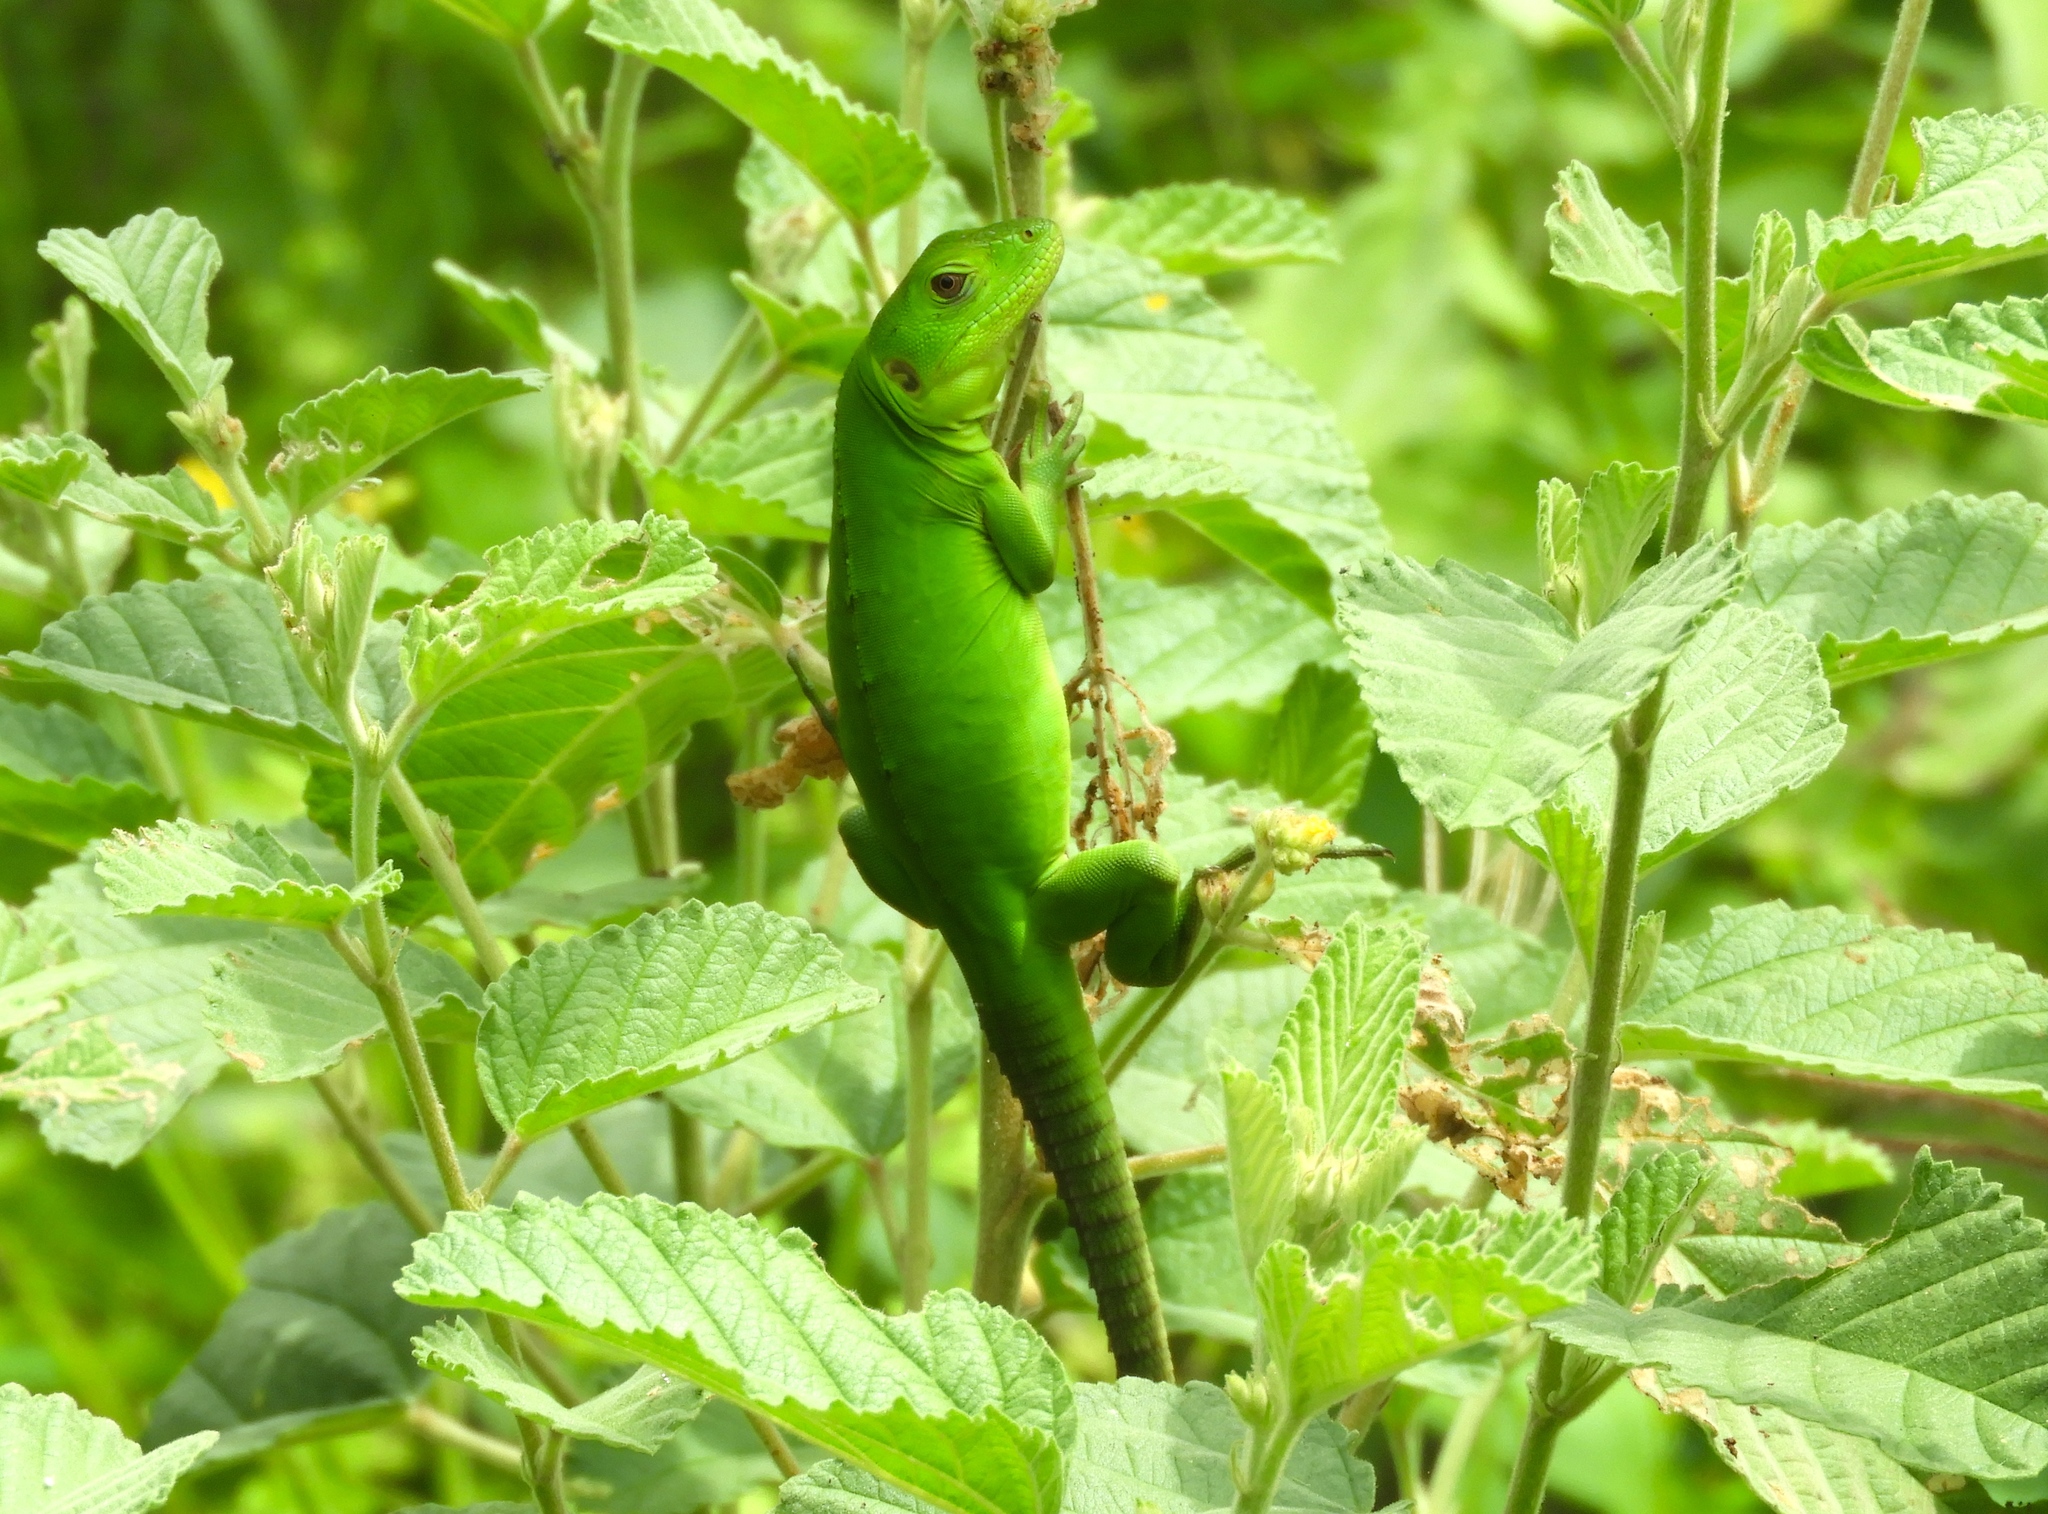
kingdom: Animalia
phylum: Chordata
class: Squamata
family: Iguanidae
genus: Ctenosaura
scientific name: Ctenosaura pectinata
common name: Guerreran spiny-tailed iguana
